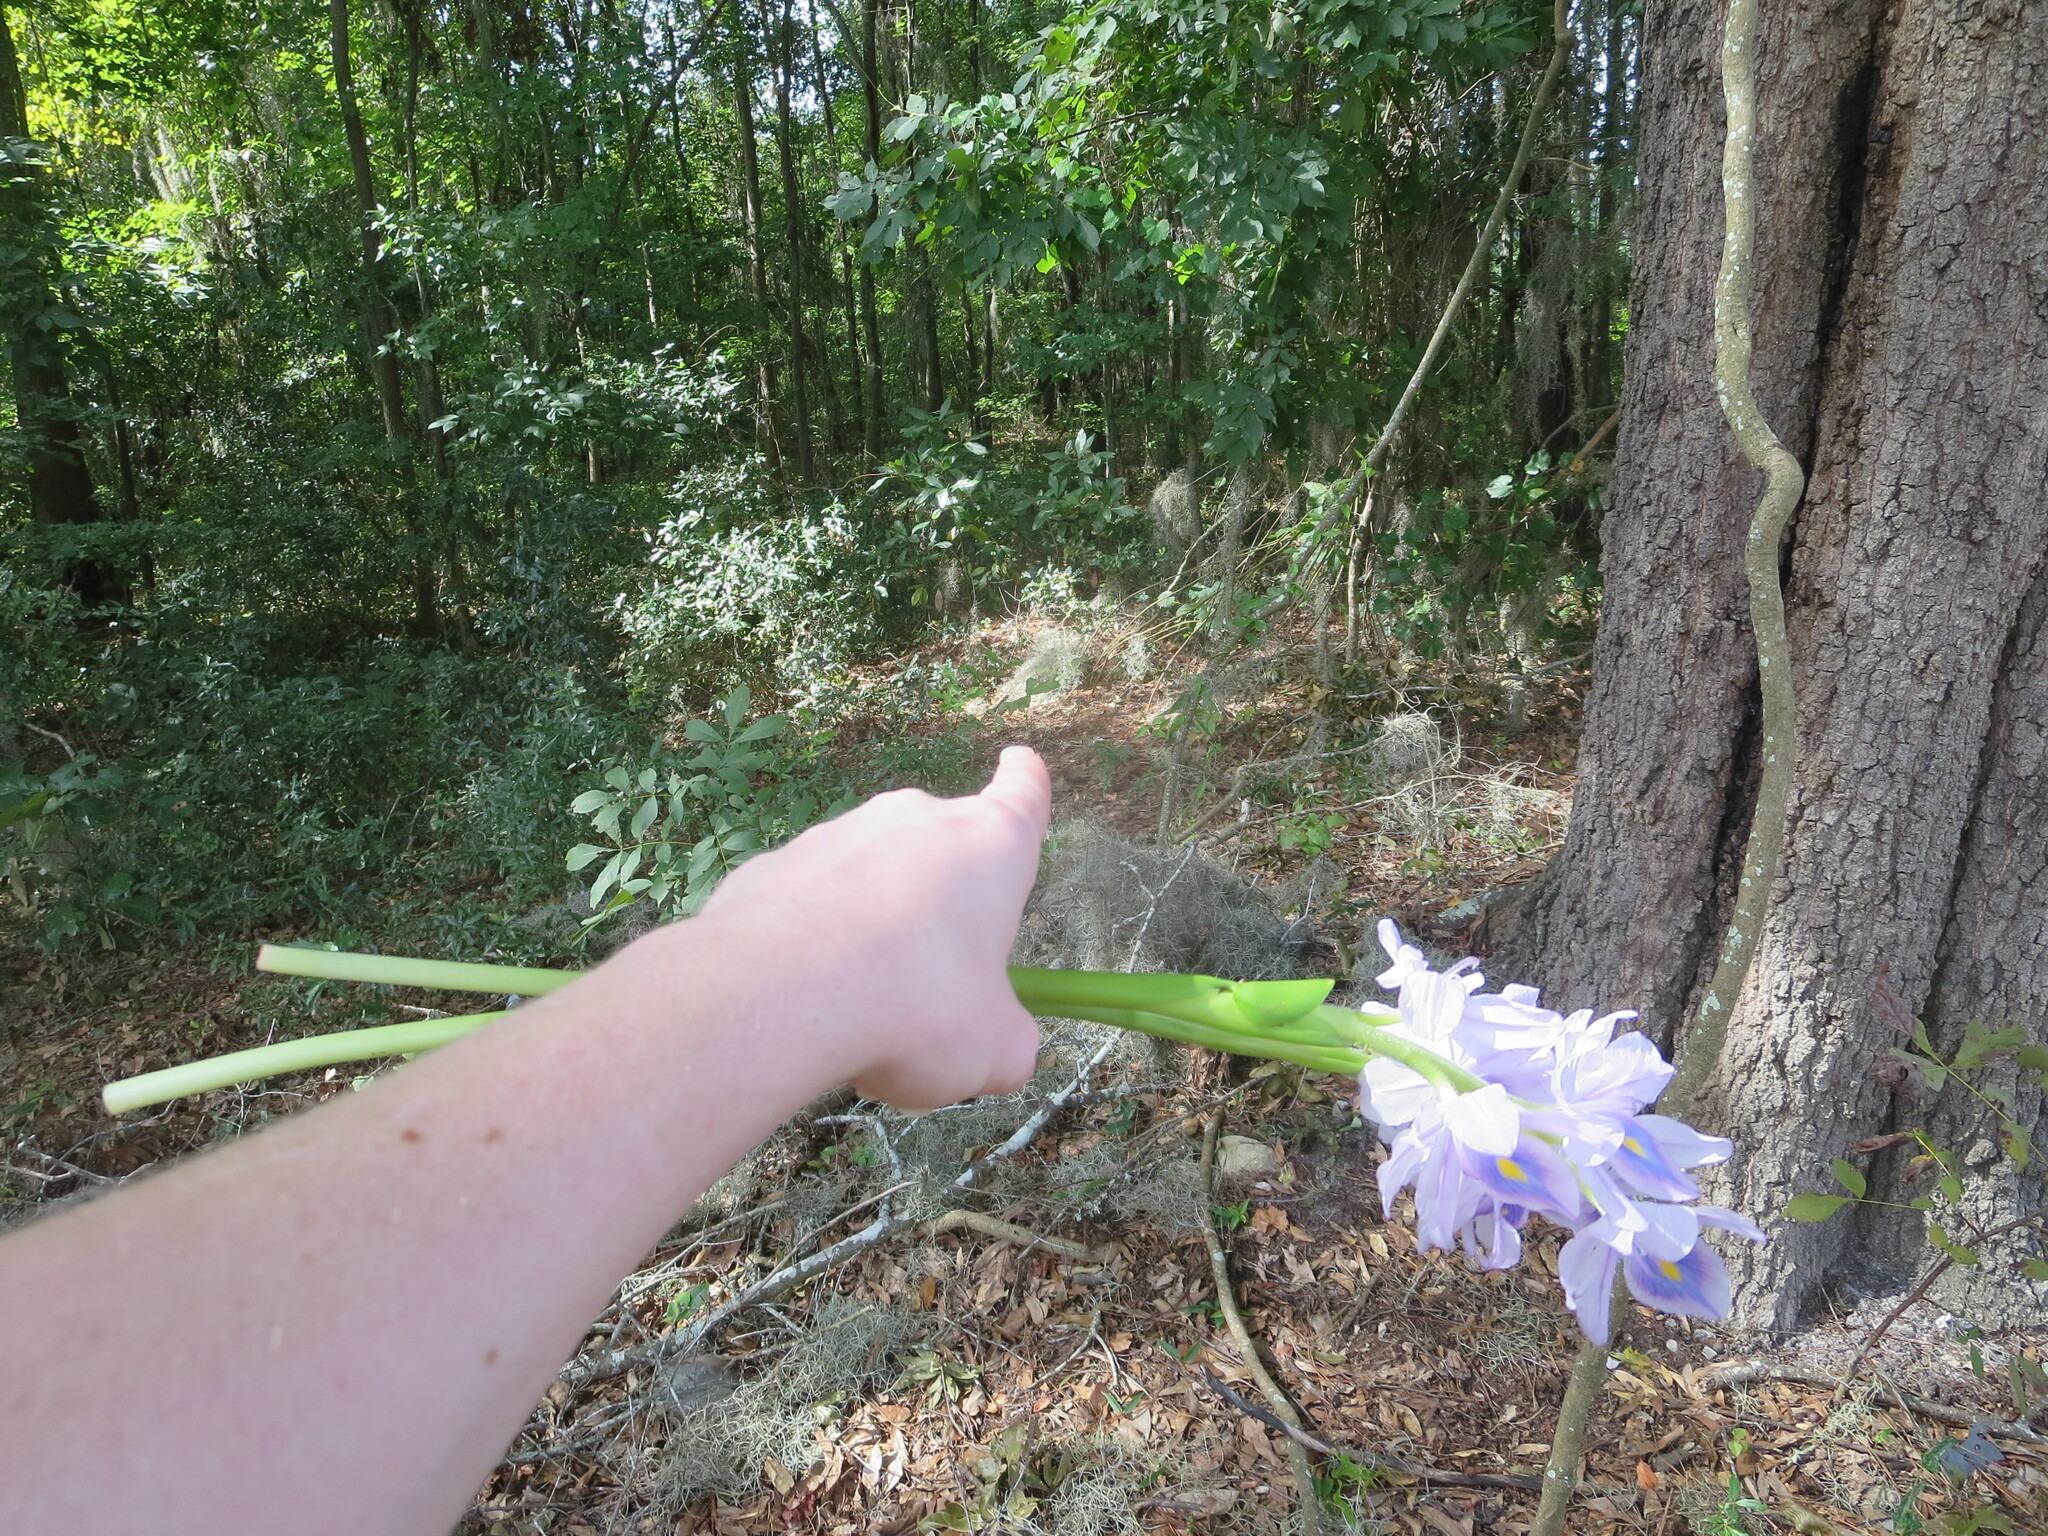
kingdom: Plantae
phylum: Tracheophyta
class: Magnoliopsida
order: Magnoliales
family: Annonaceae
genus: Asimina
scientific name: Asimina parviflora
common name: Dwarf pawpaw
